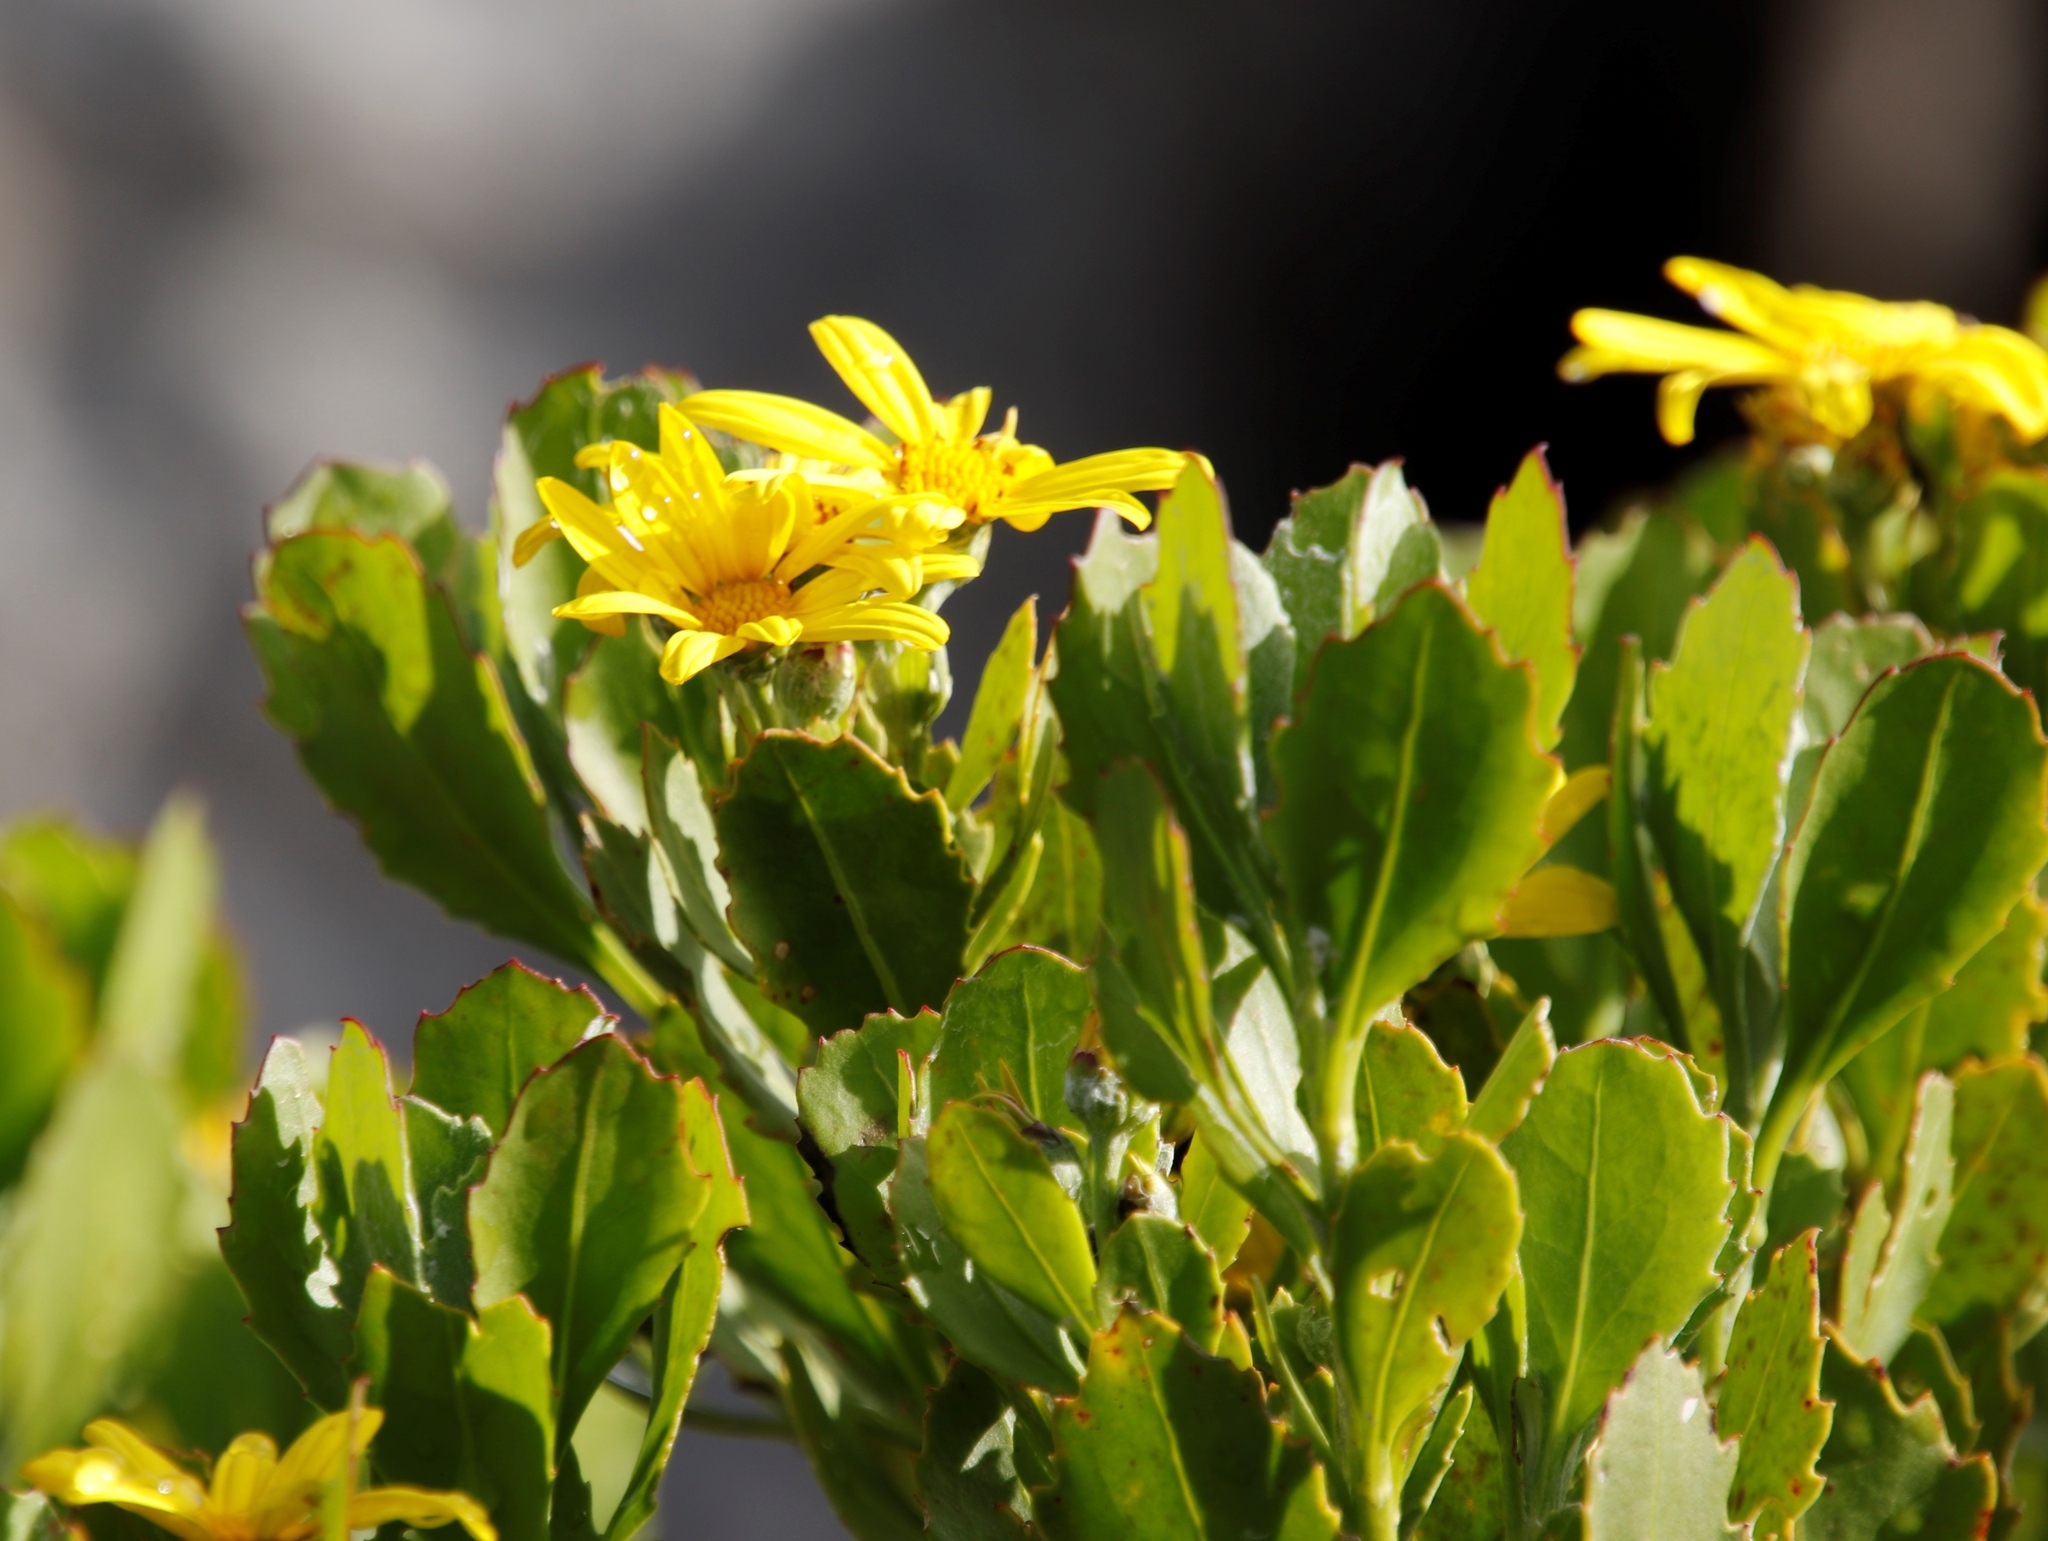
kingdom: Plantae
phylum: Tracheophyta
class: Magnoliopsida
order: Asterales
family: Asteraceae
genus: Osteospermum
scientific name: Osteospermum moniliferum
